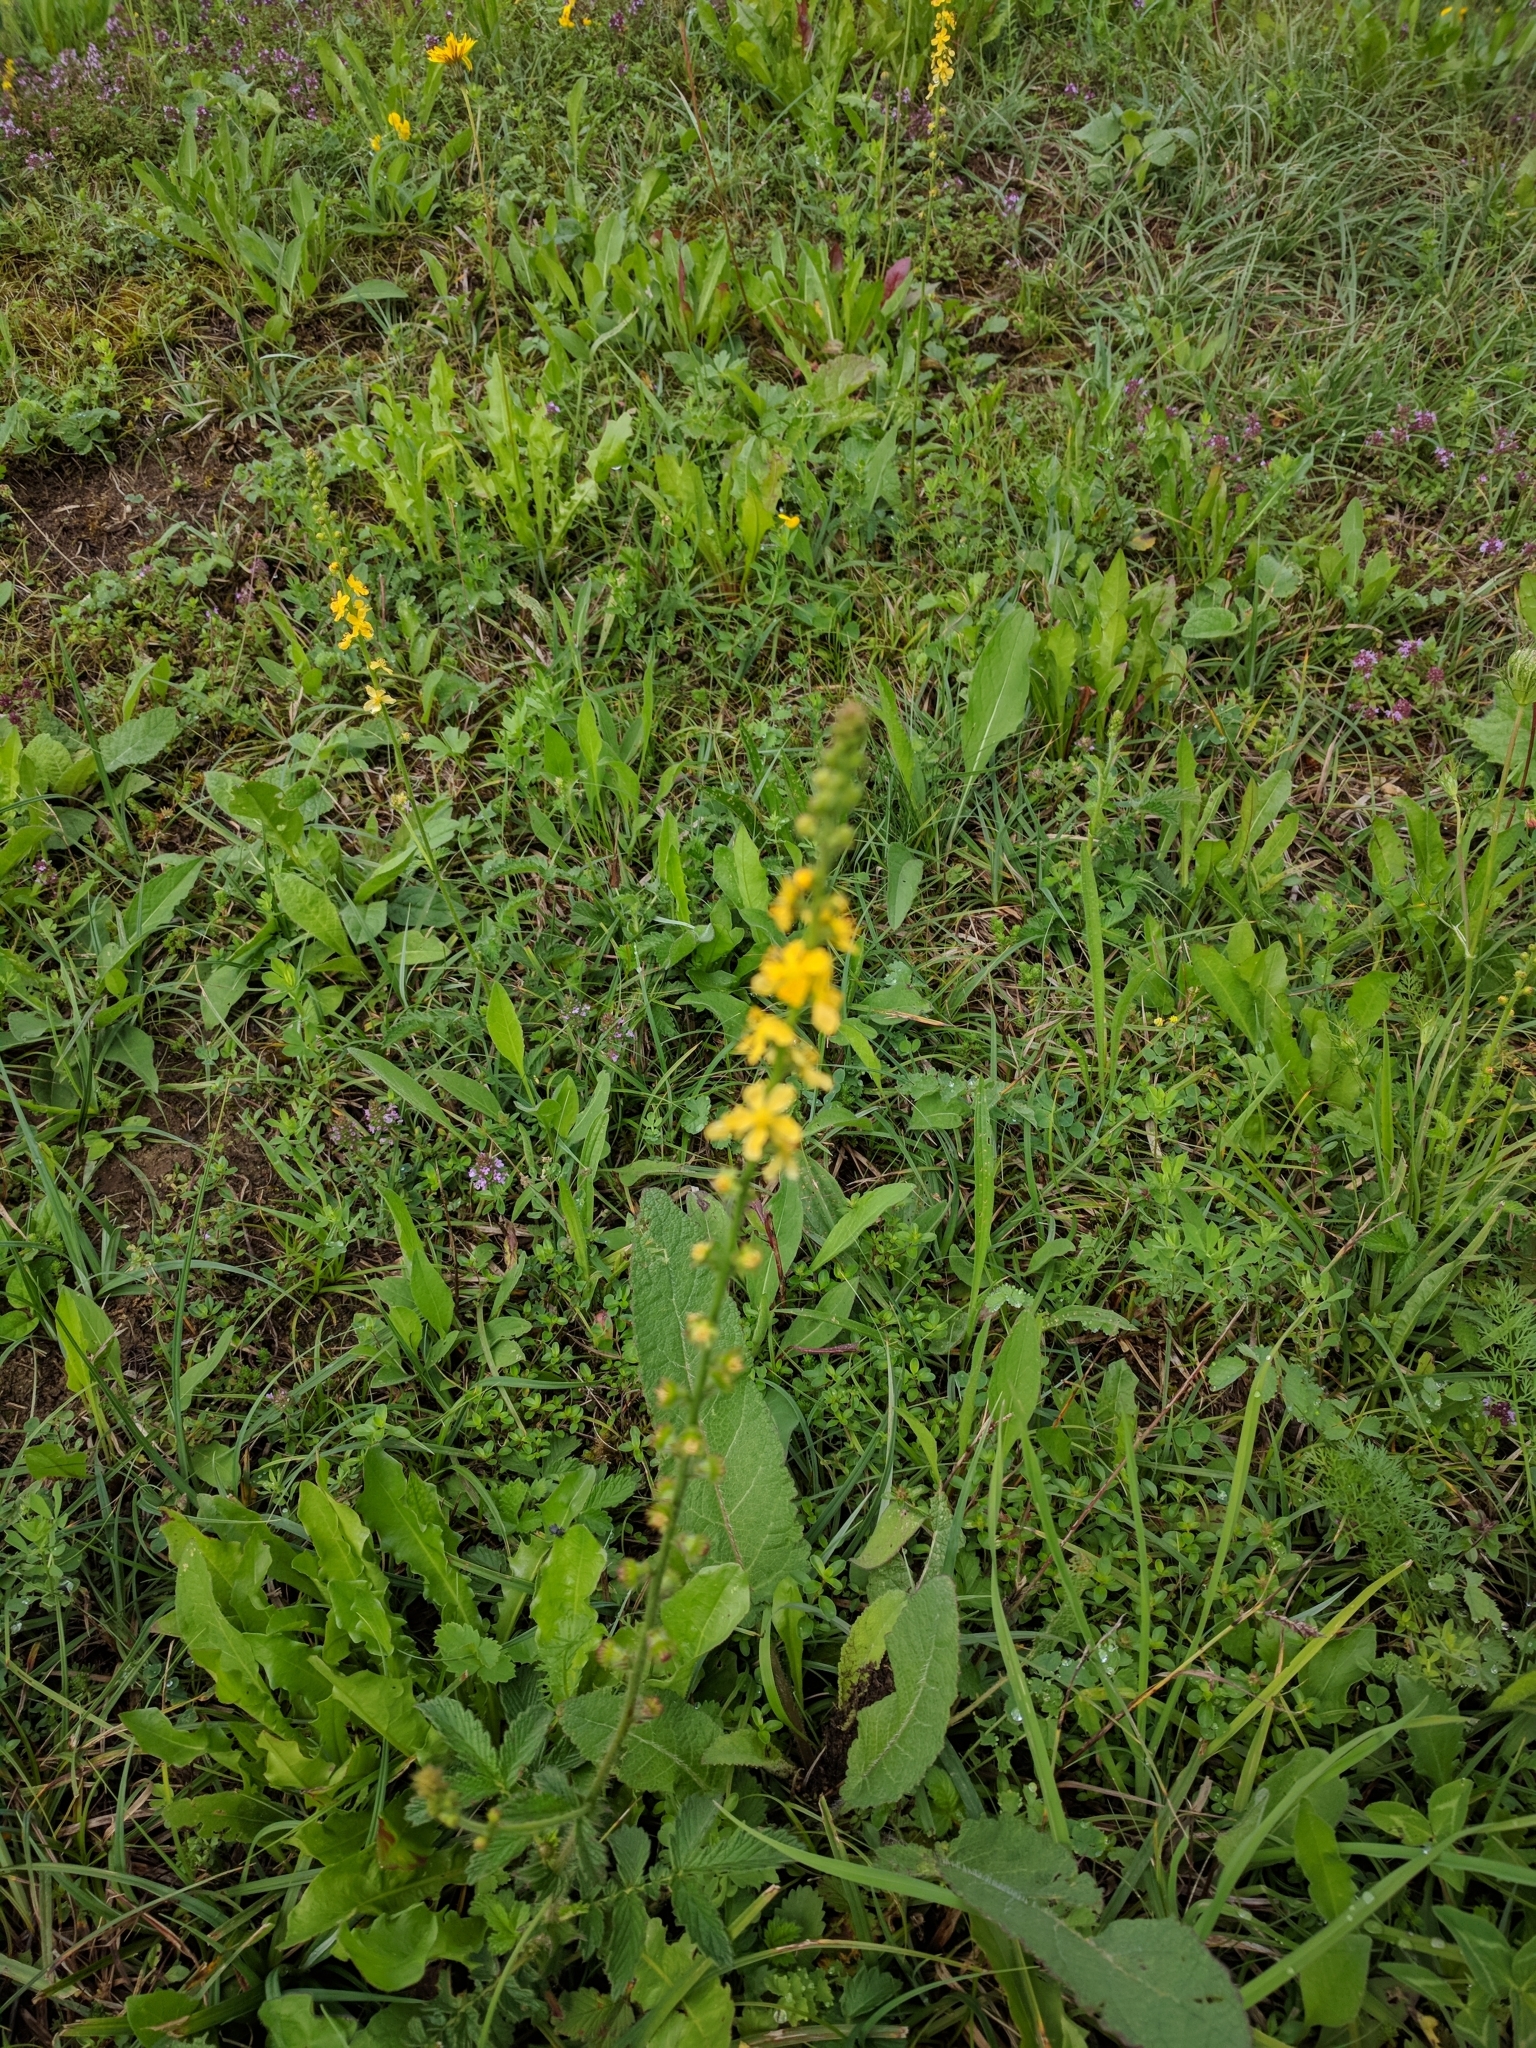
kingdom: Plantae
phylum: Tracheophyta
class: Magnoliopsida
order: Rosales
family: Rosaceae
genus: Agrimonia
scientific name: Agrimonia eupatoria
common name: Agrimony
